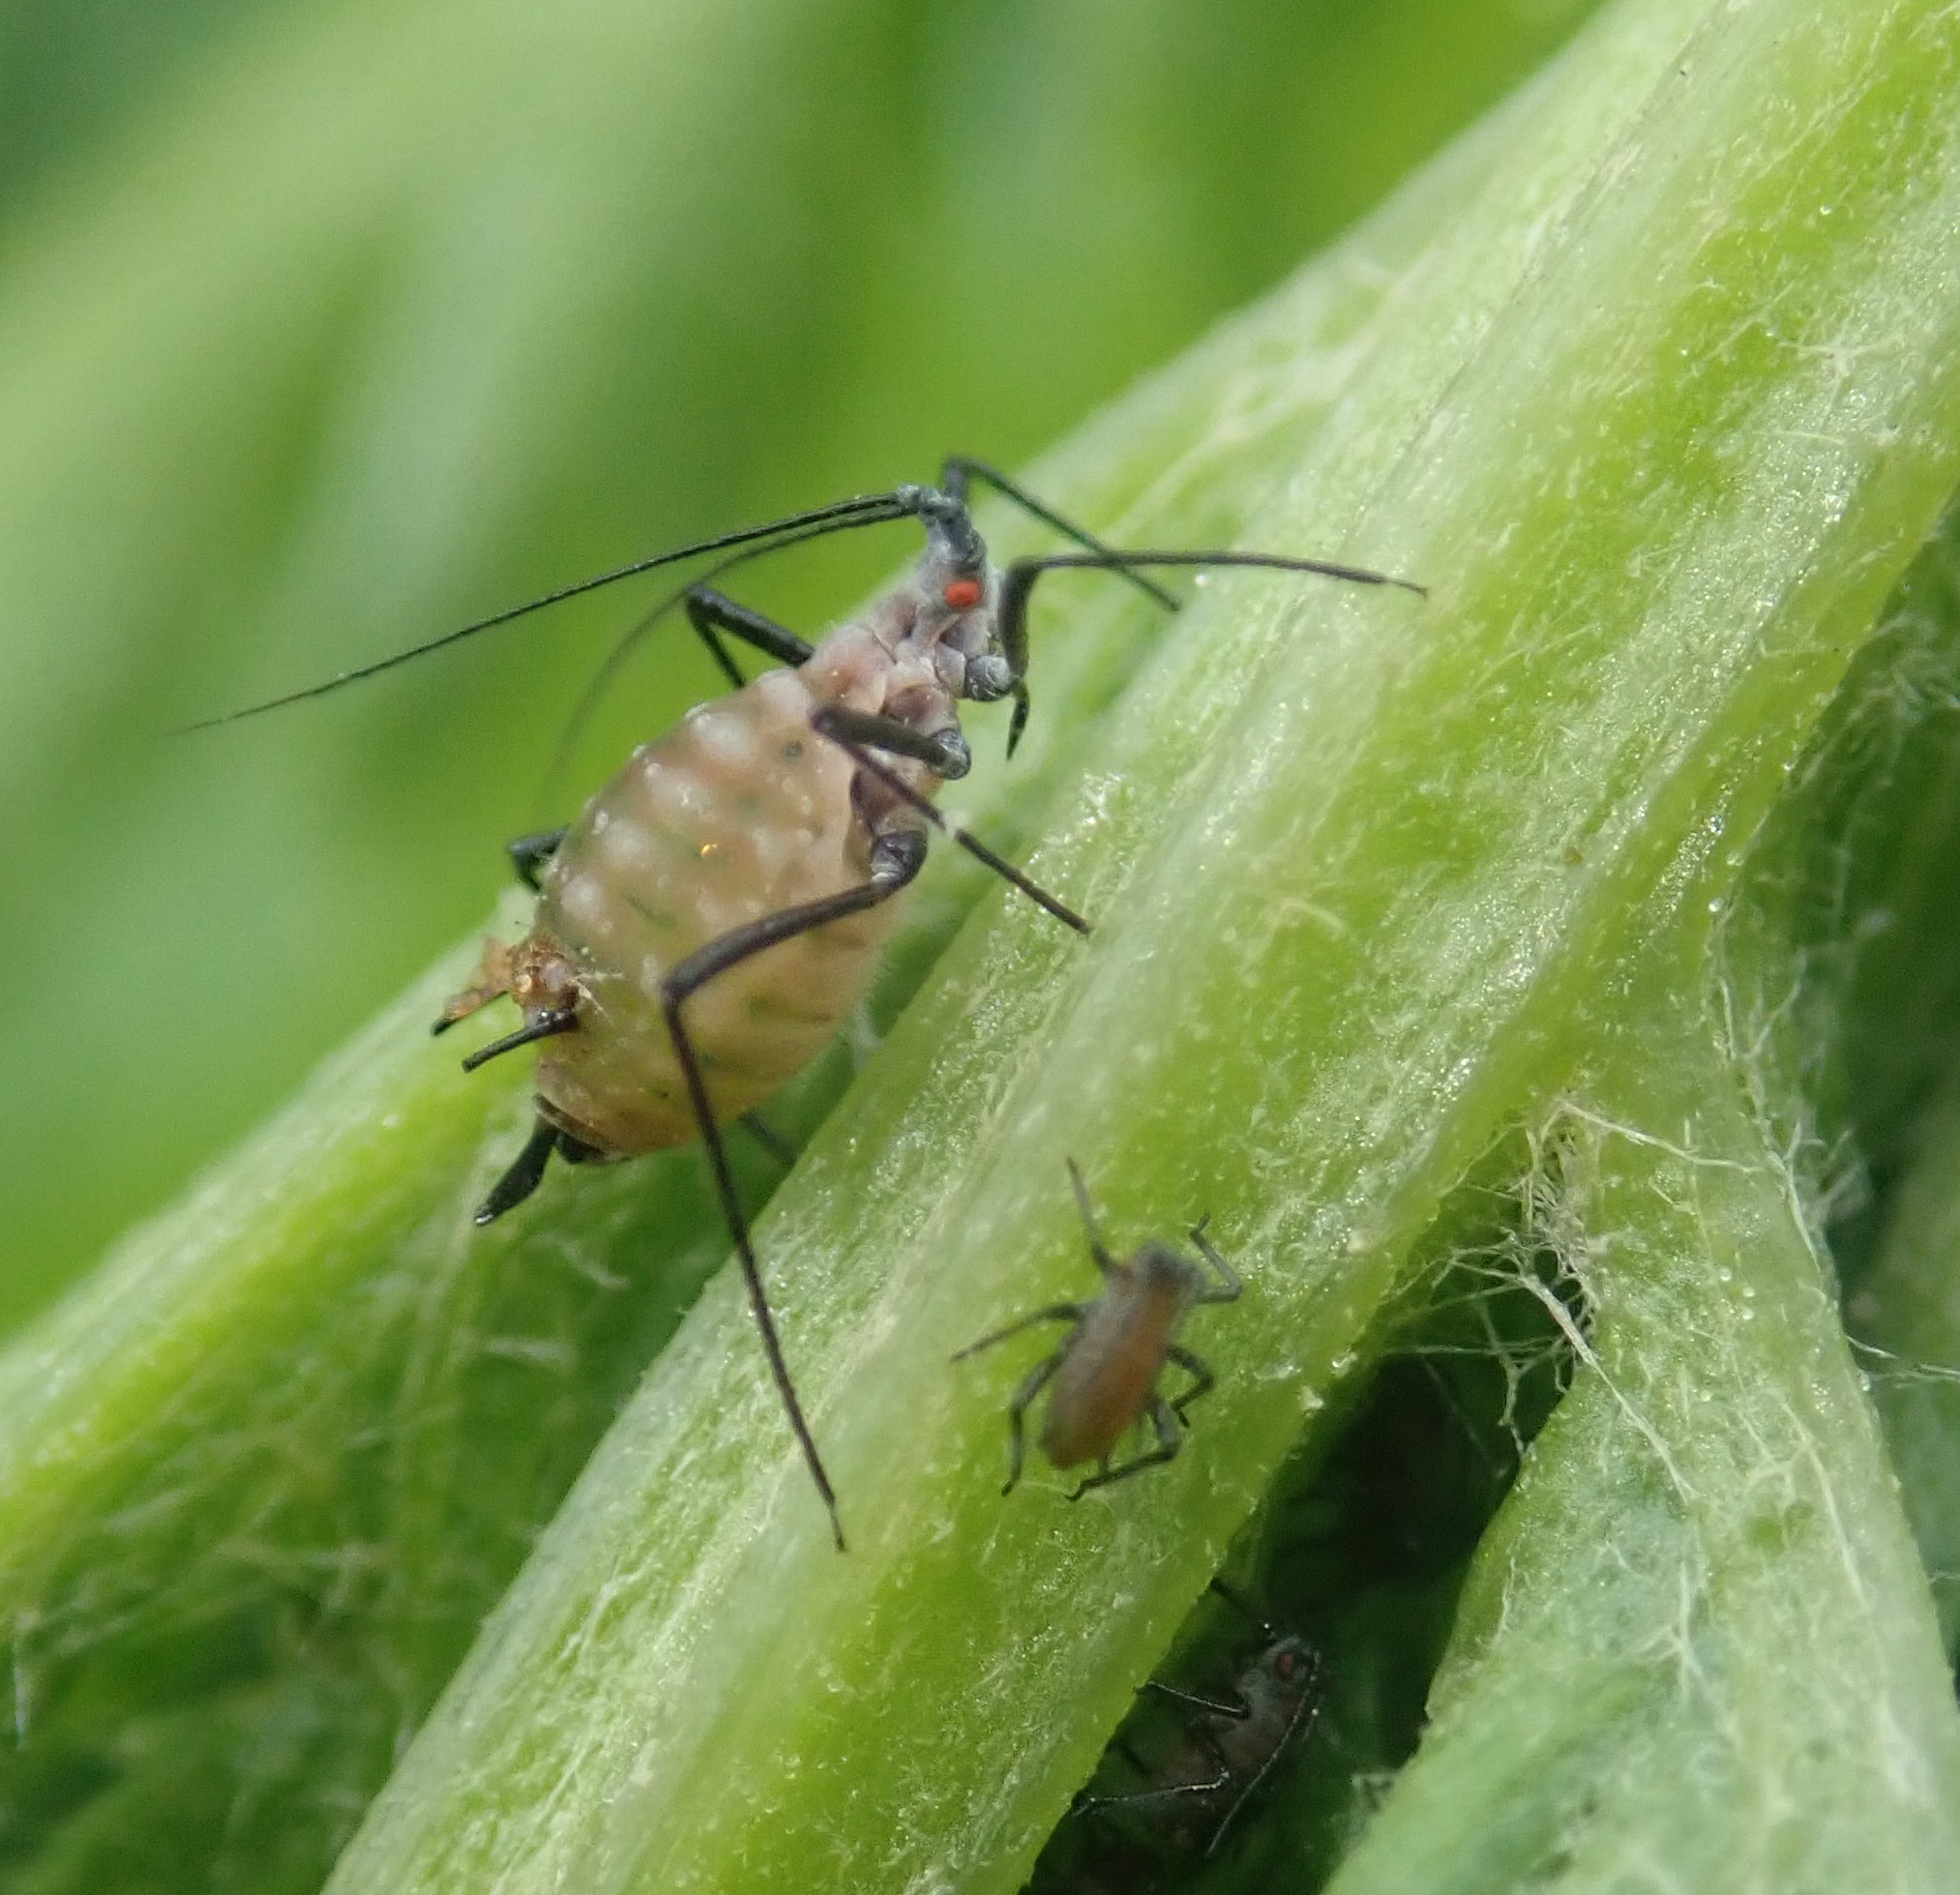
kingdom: Animalia
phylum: Arthropoda
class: Insecta
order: Hemiptera
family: Aphididae
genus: Macrosiphoniella
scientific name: Macrosiphoniella tanacetaria
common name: Aphid
